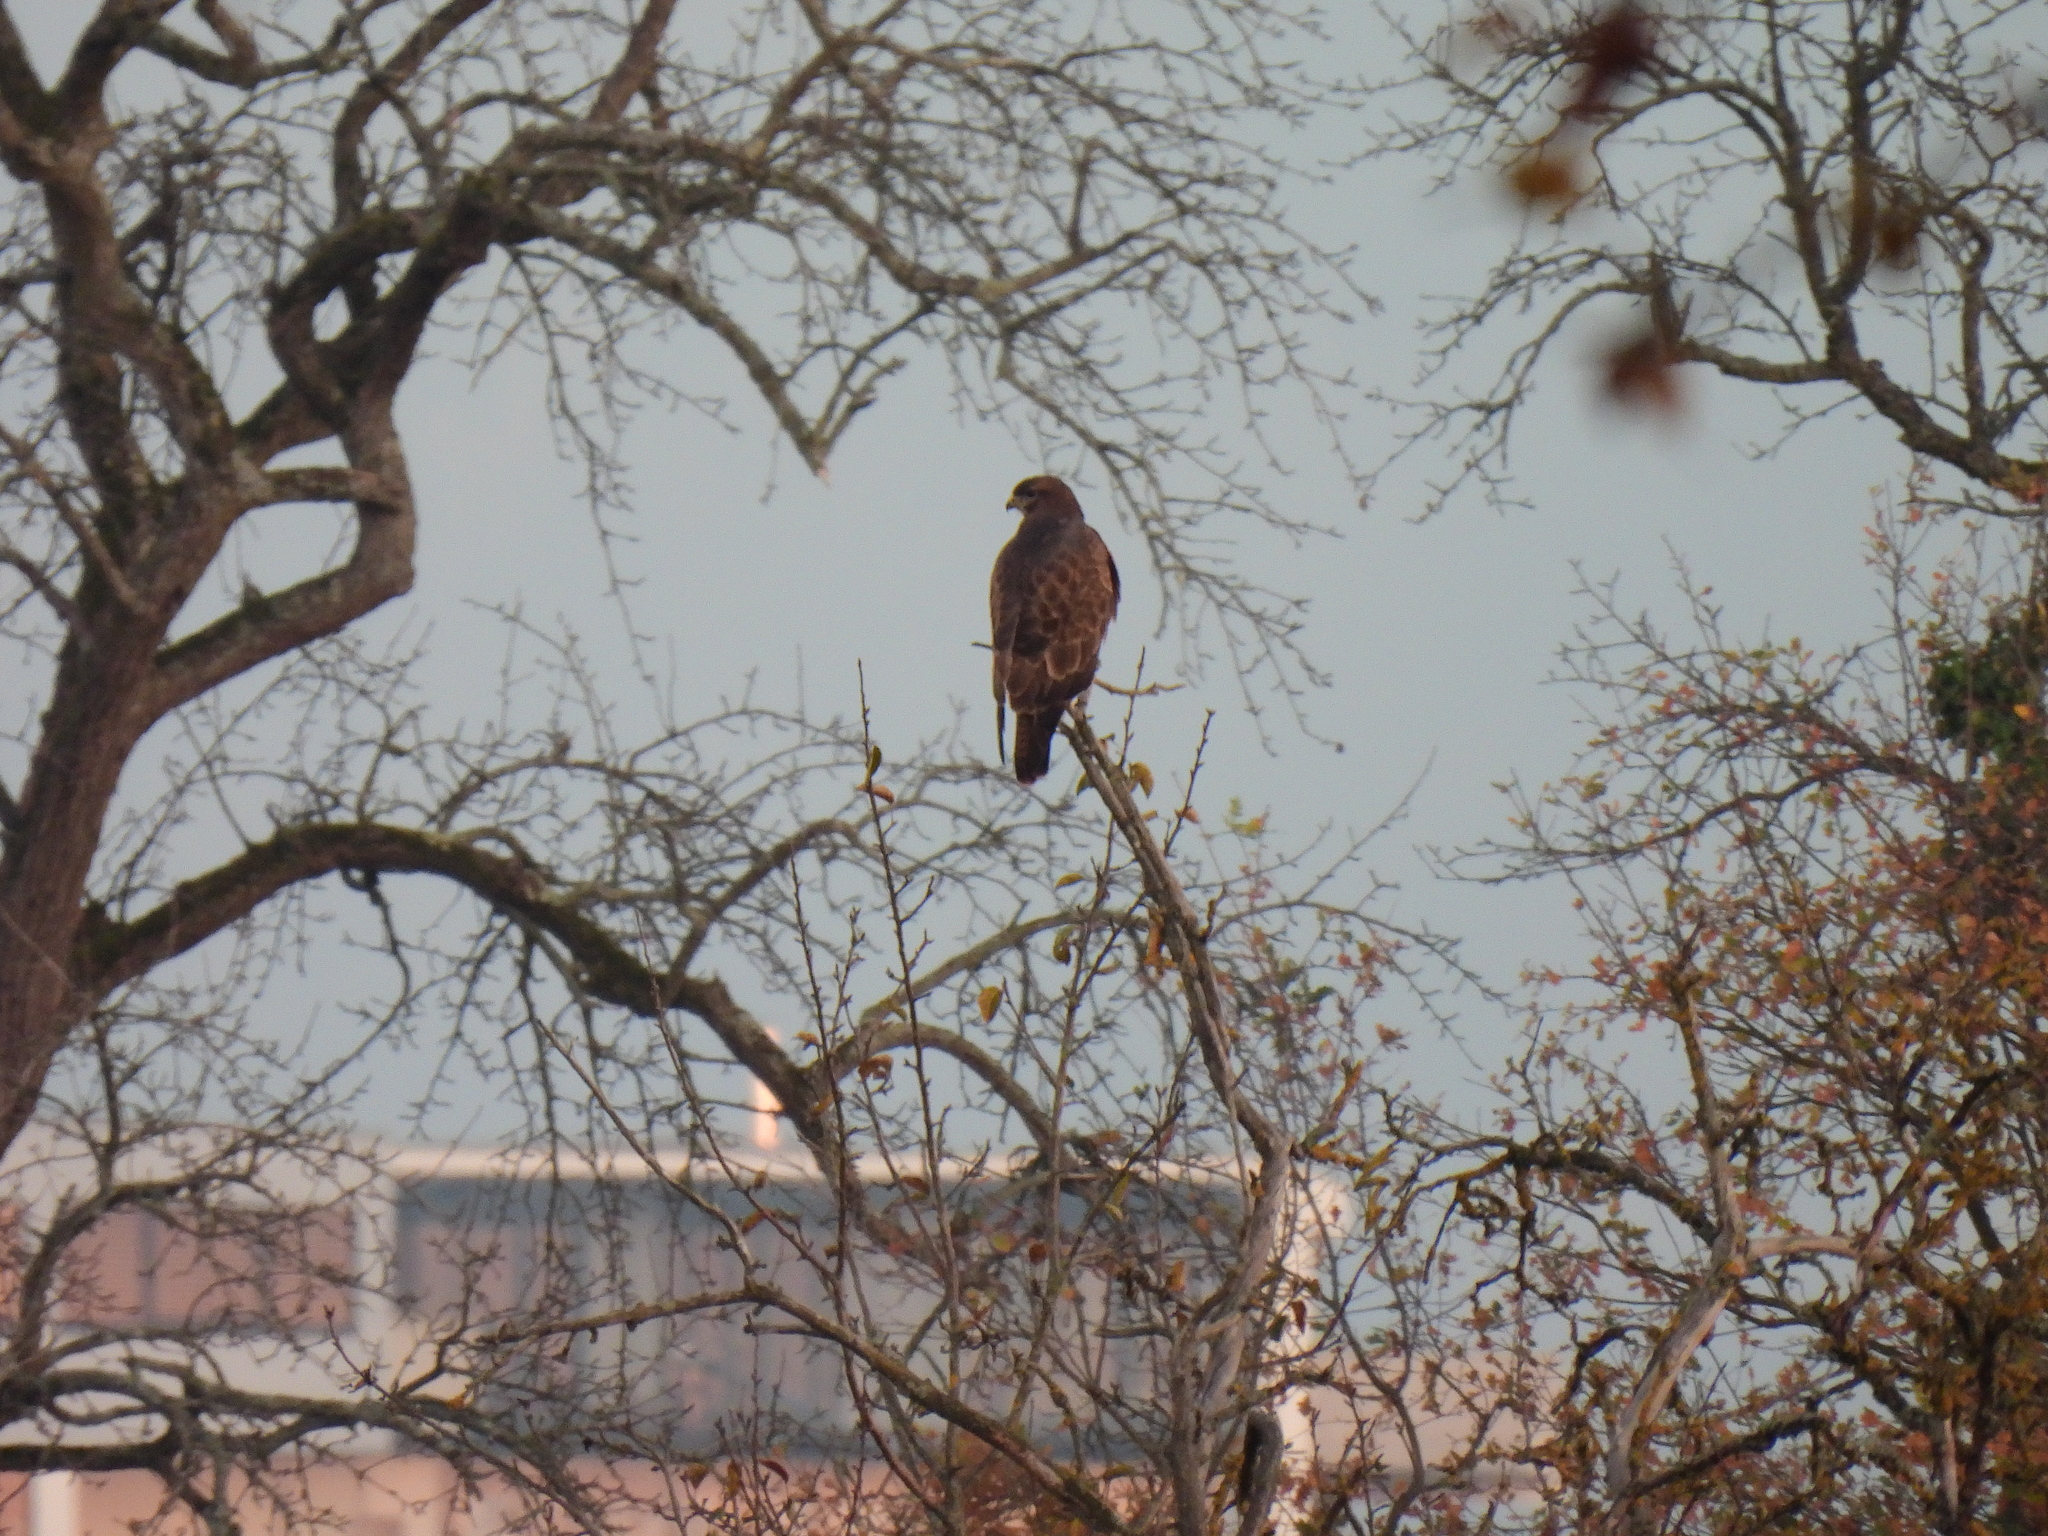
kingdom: Animalia
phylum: Chordata
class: Aves
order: Accipitriformes
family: Accipitridae
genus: Buteo
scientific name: Buteo buteo
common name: Common buzzard
